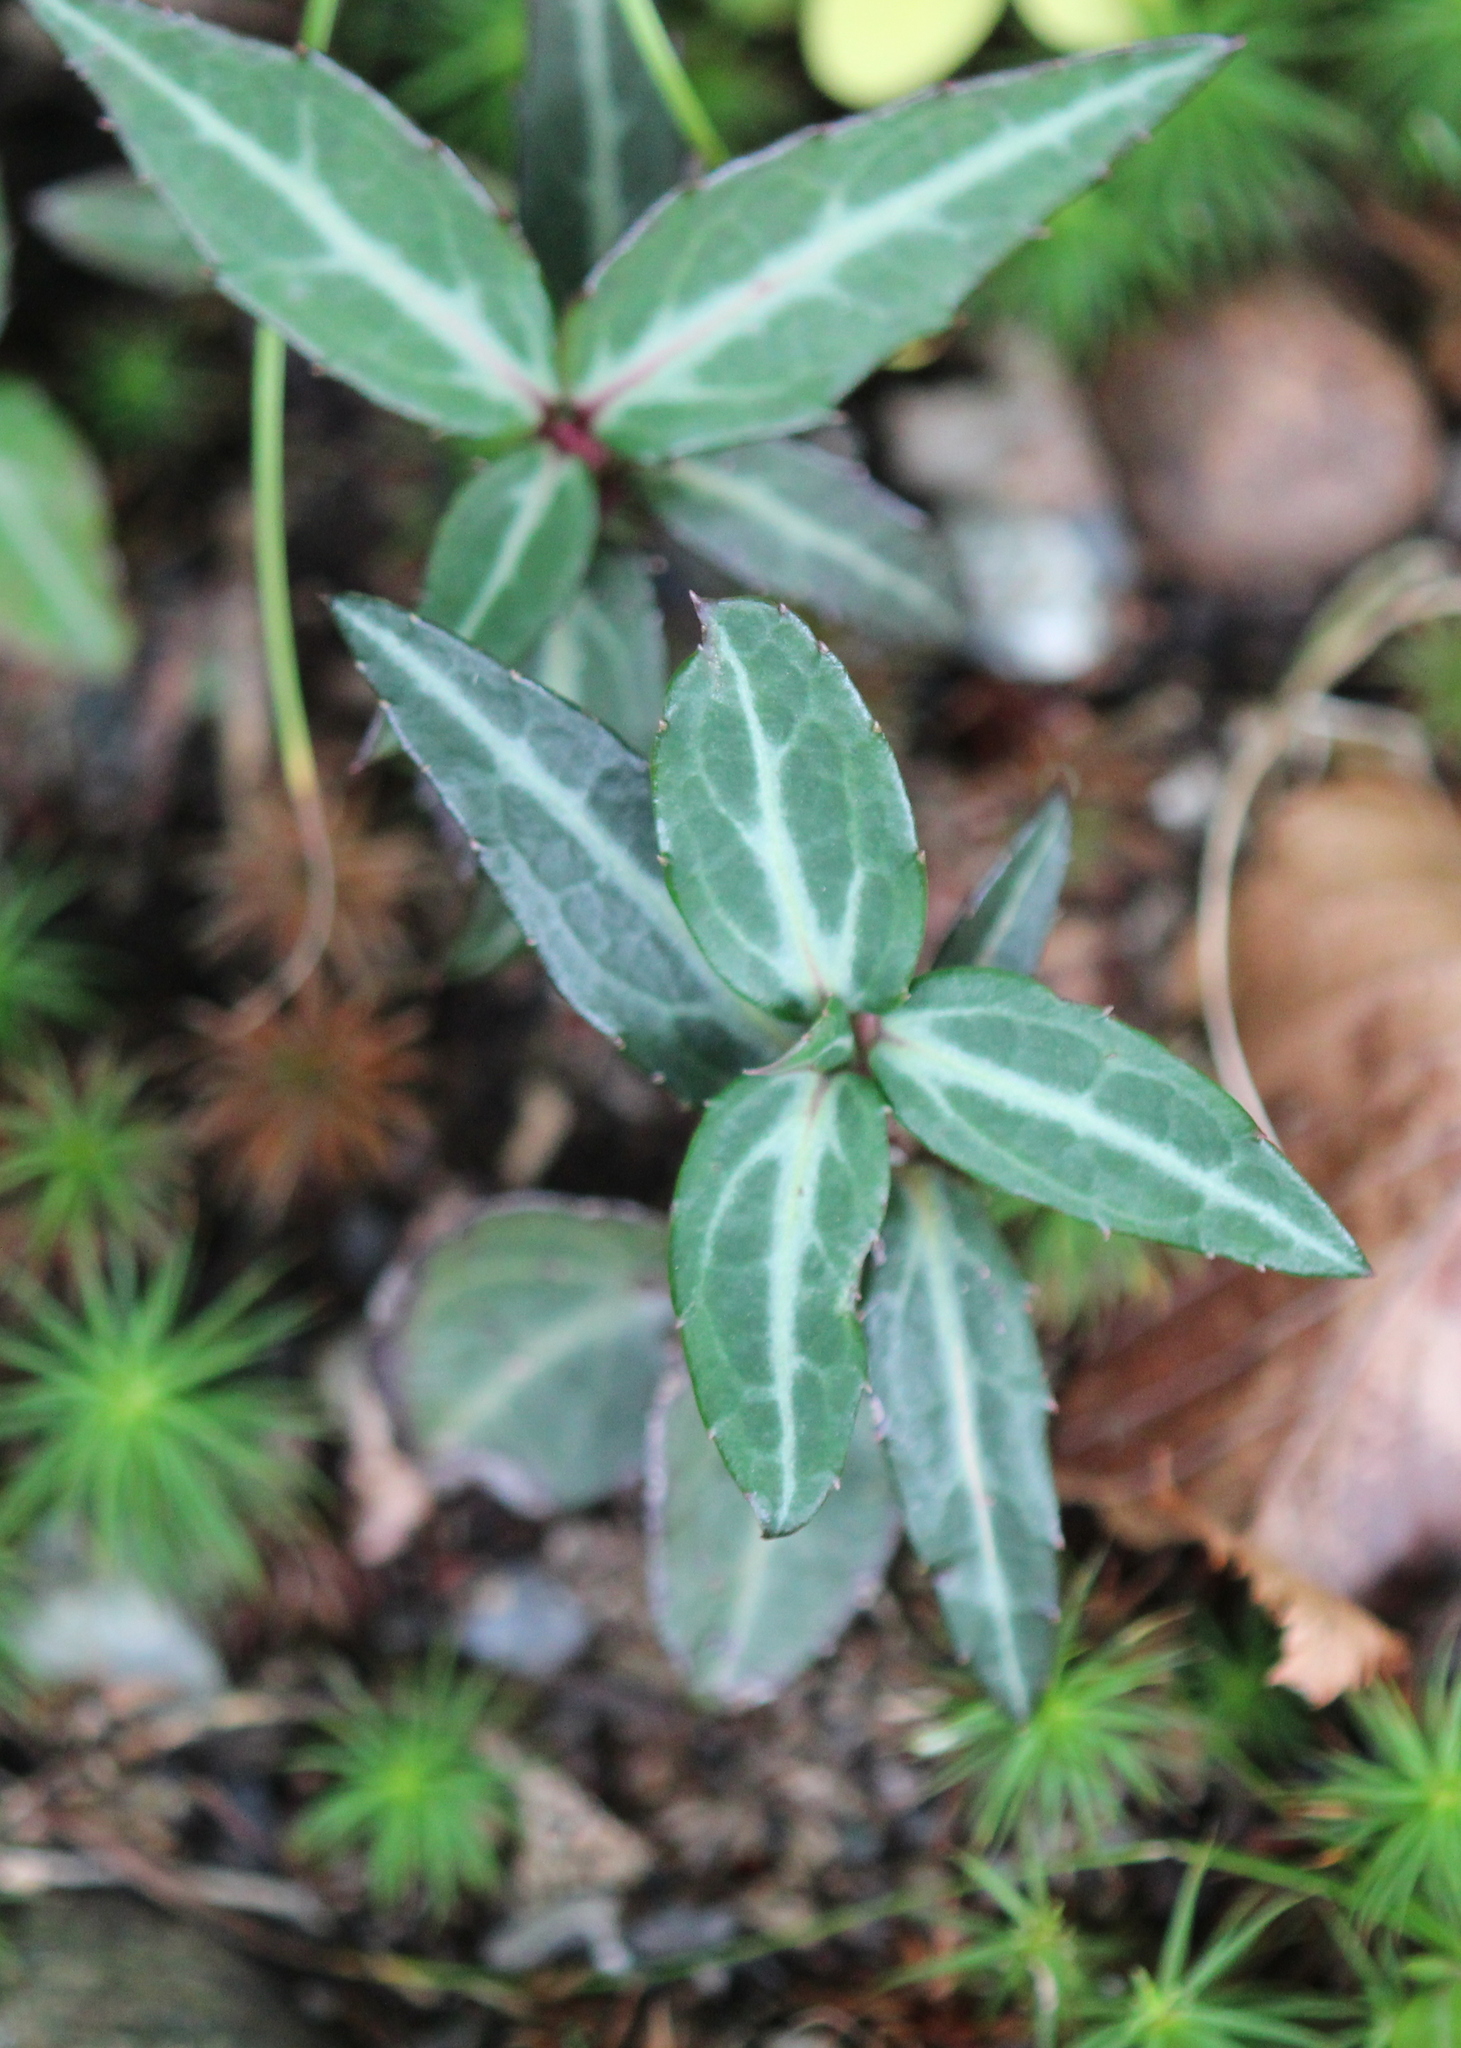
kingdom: Plantae
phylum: Tracheophyta
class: Magnoliopsida
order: Ericales
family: Ericaceae
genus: Chimaphila
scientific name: Chimaphila maculata
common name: Spotted pipsissewa
